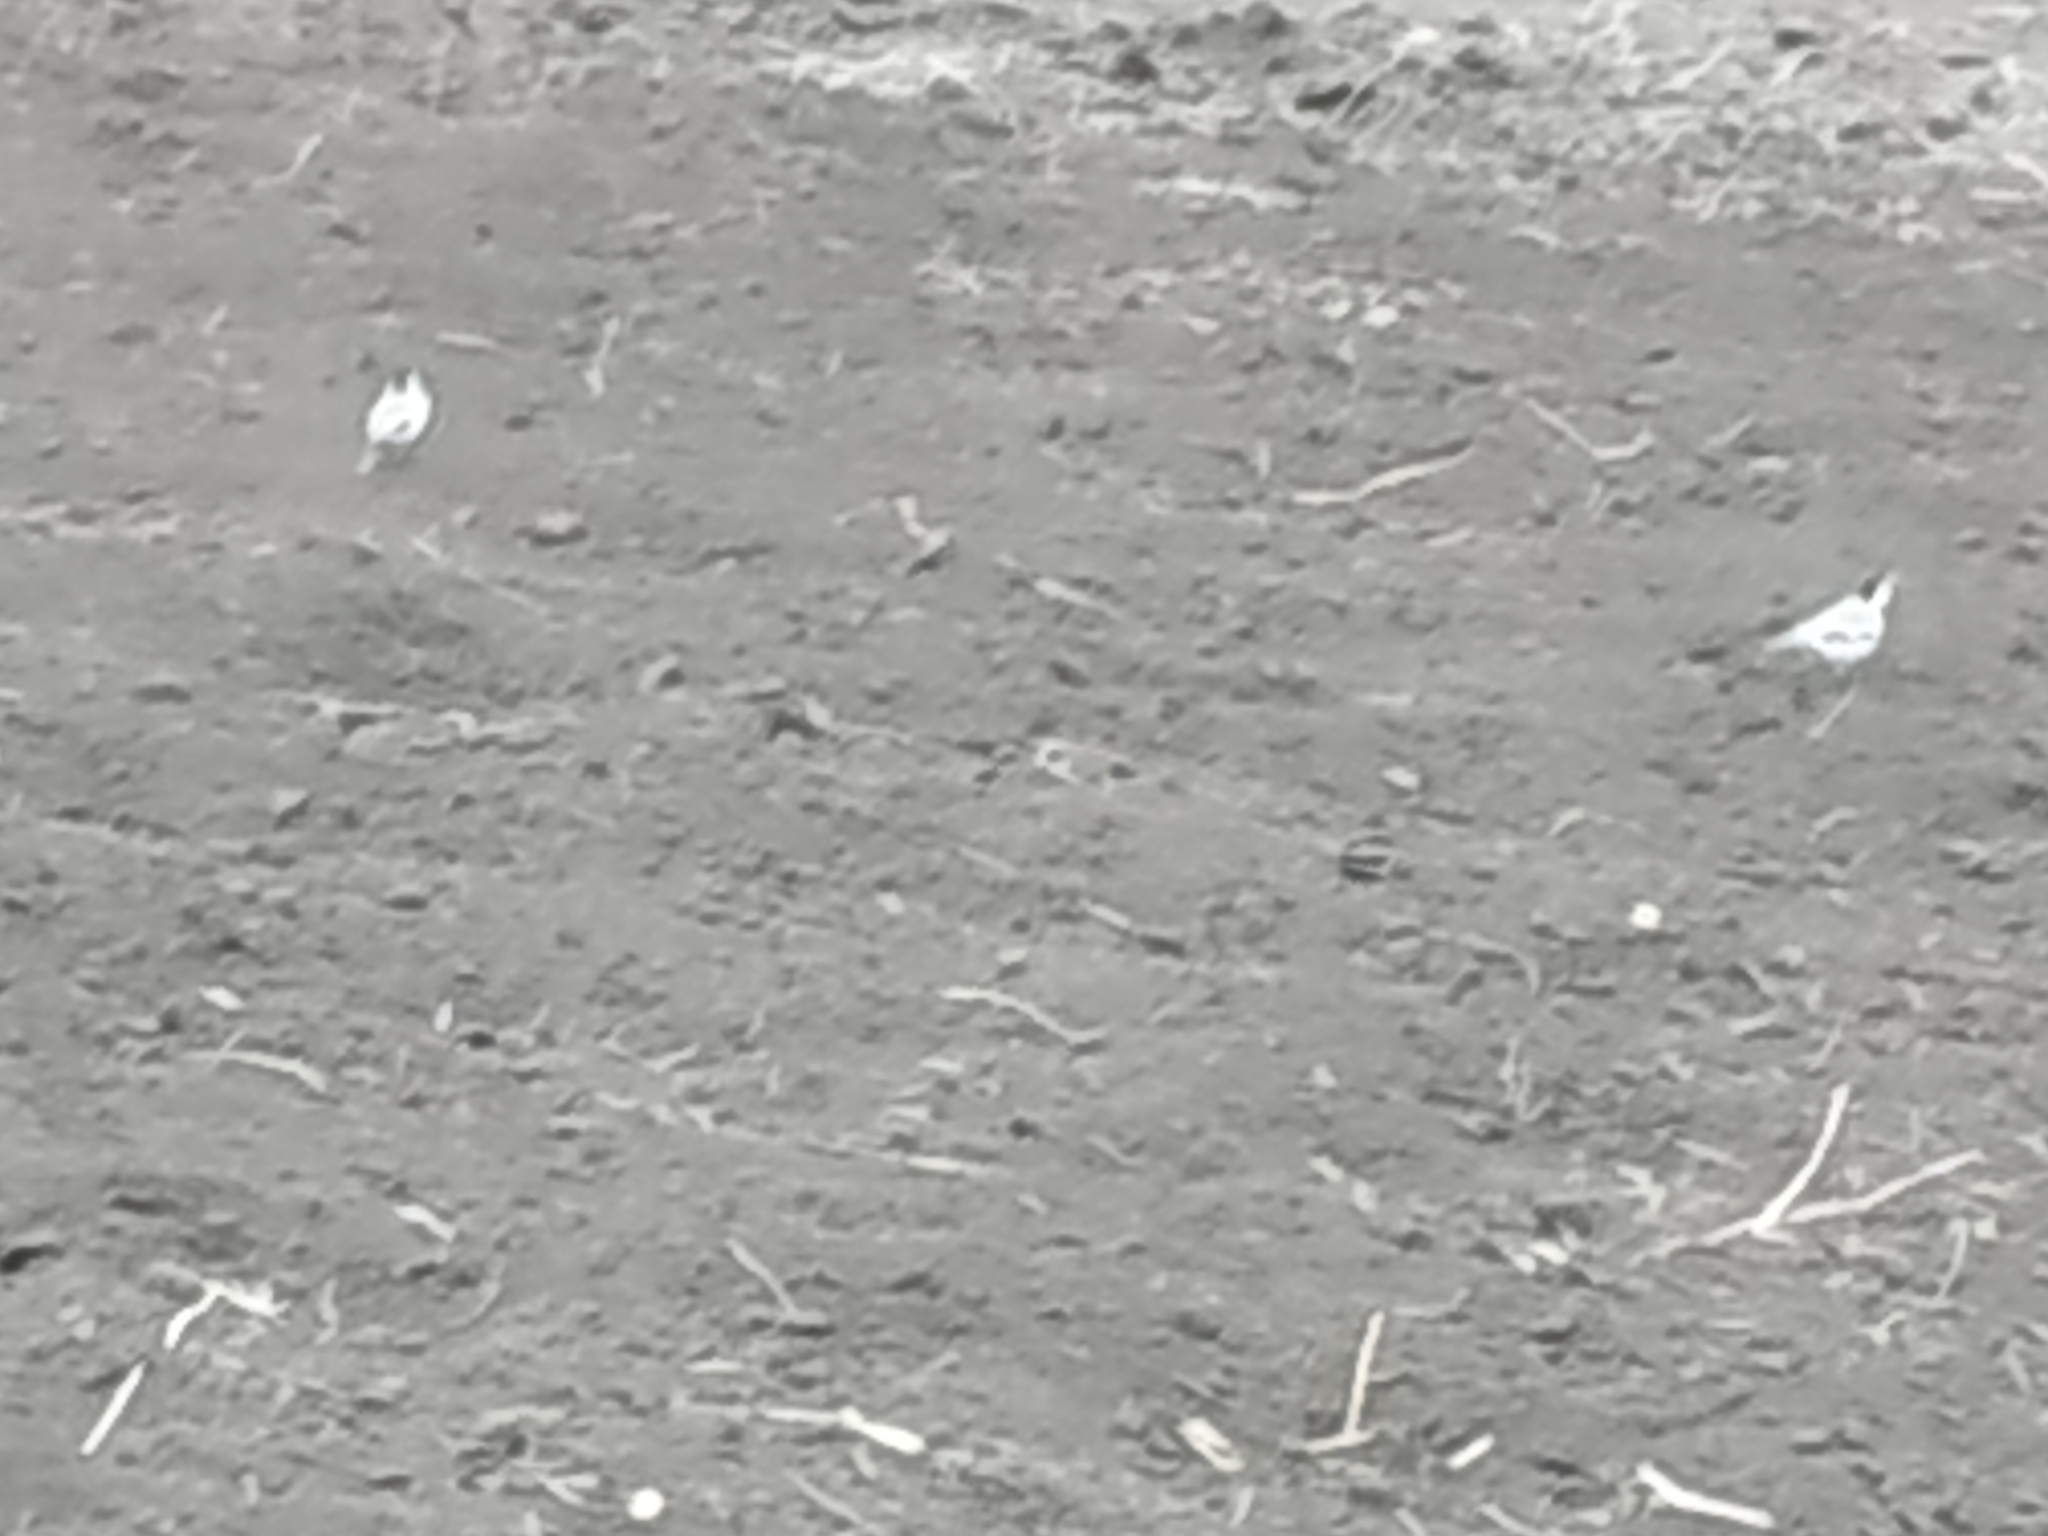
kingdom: Animalia
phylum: Chordata
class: Aves
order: Passeriformes
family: Motacillidae
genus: Motacilla
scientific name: Motacilla alba
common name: White wagtail
